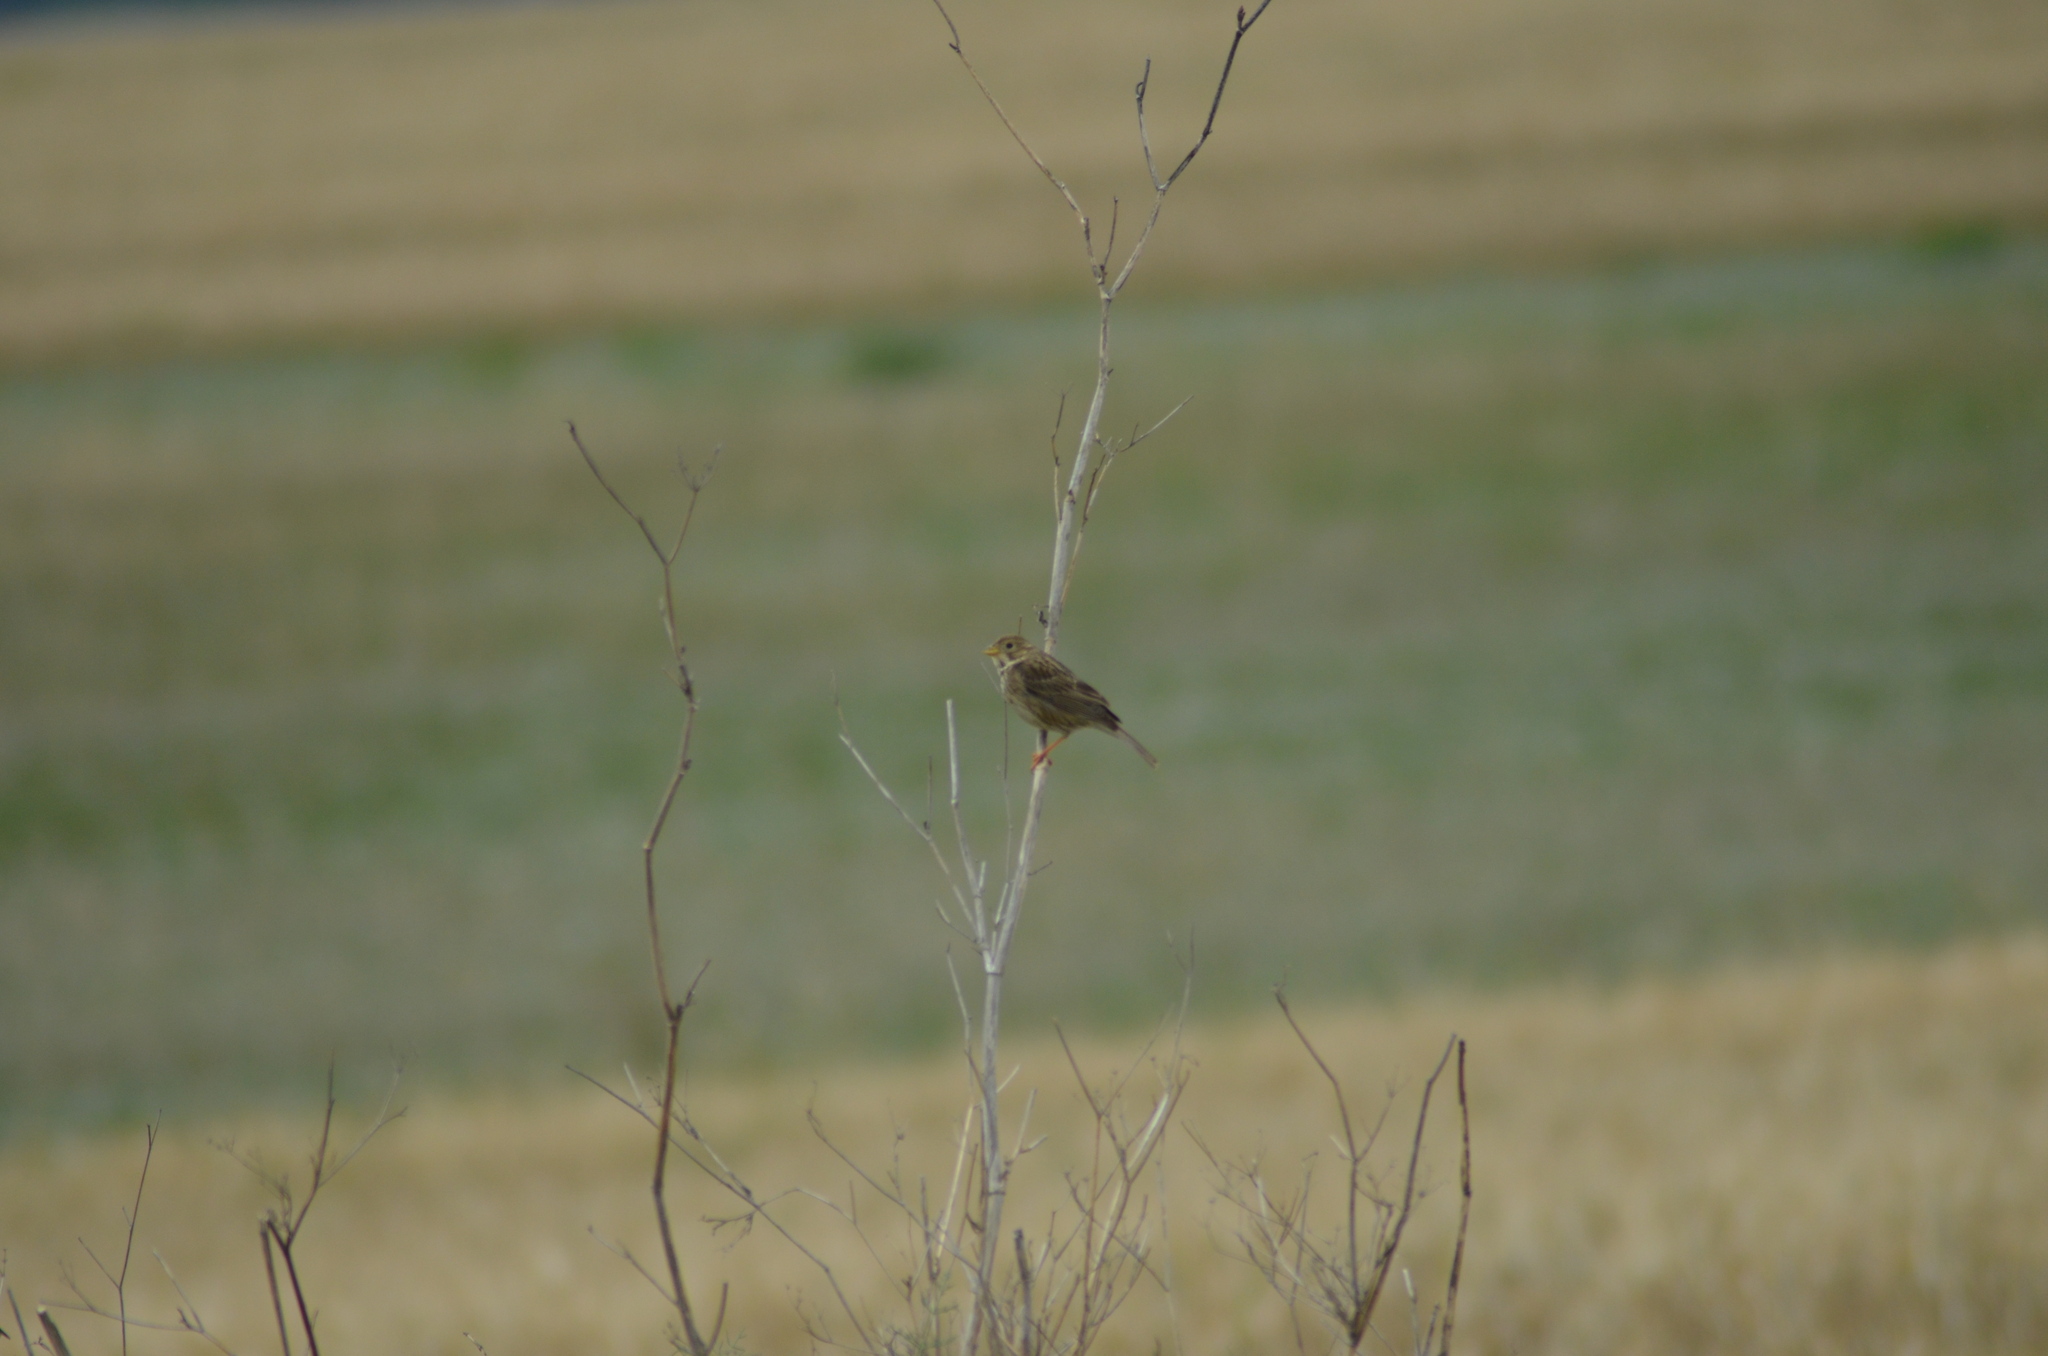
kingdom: Animalia
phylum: Chordata
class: Aves
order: Passeriformes
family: Emberizidae
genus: Emberiza
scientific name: Emberiza calandra
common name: Corn bunting
